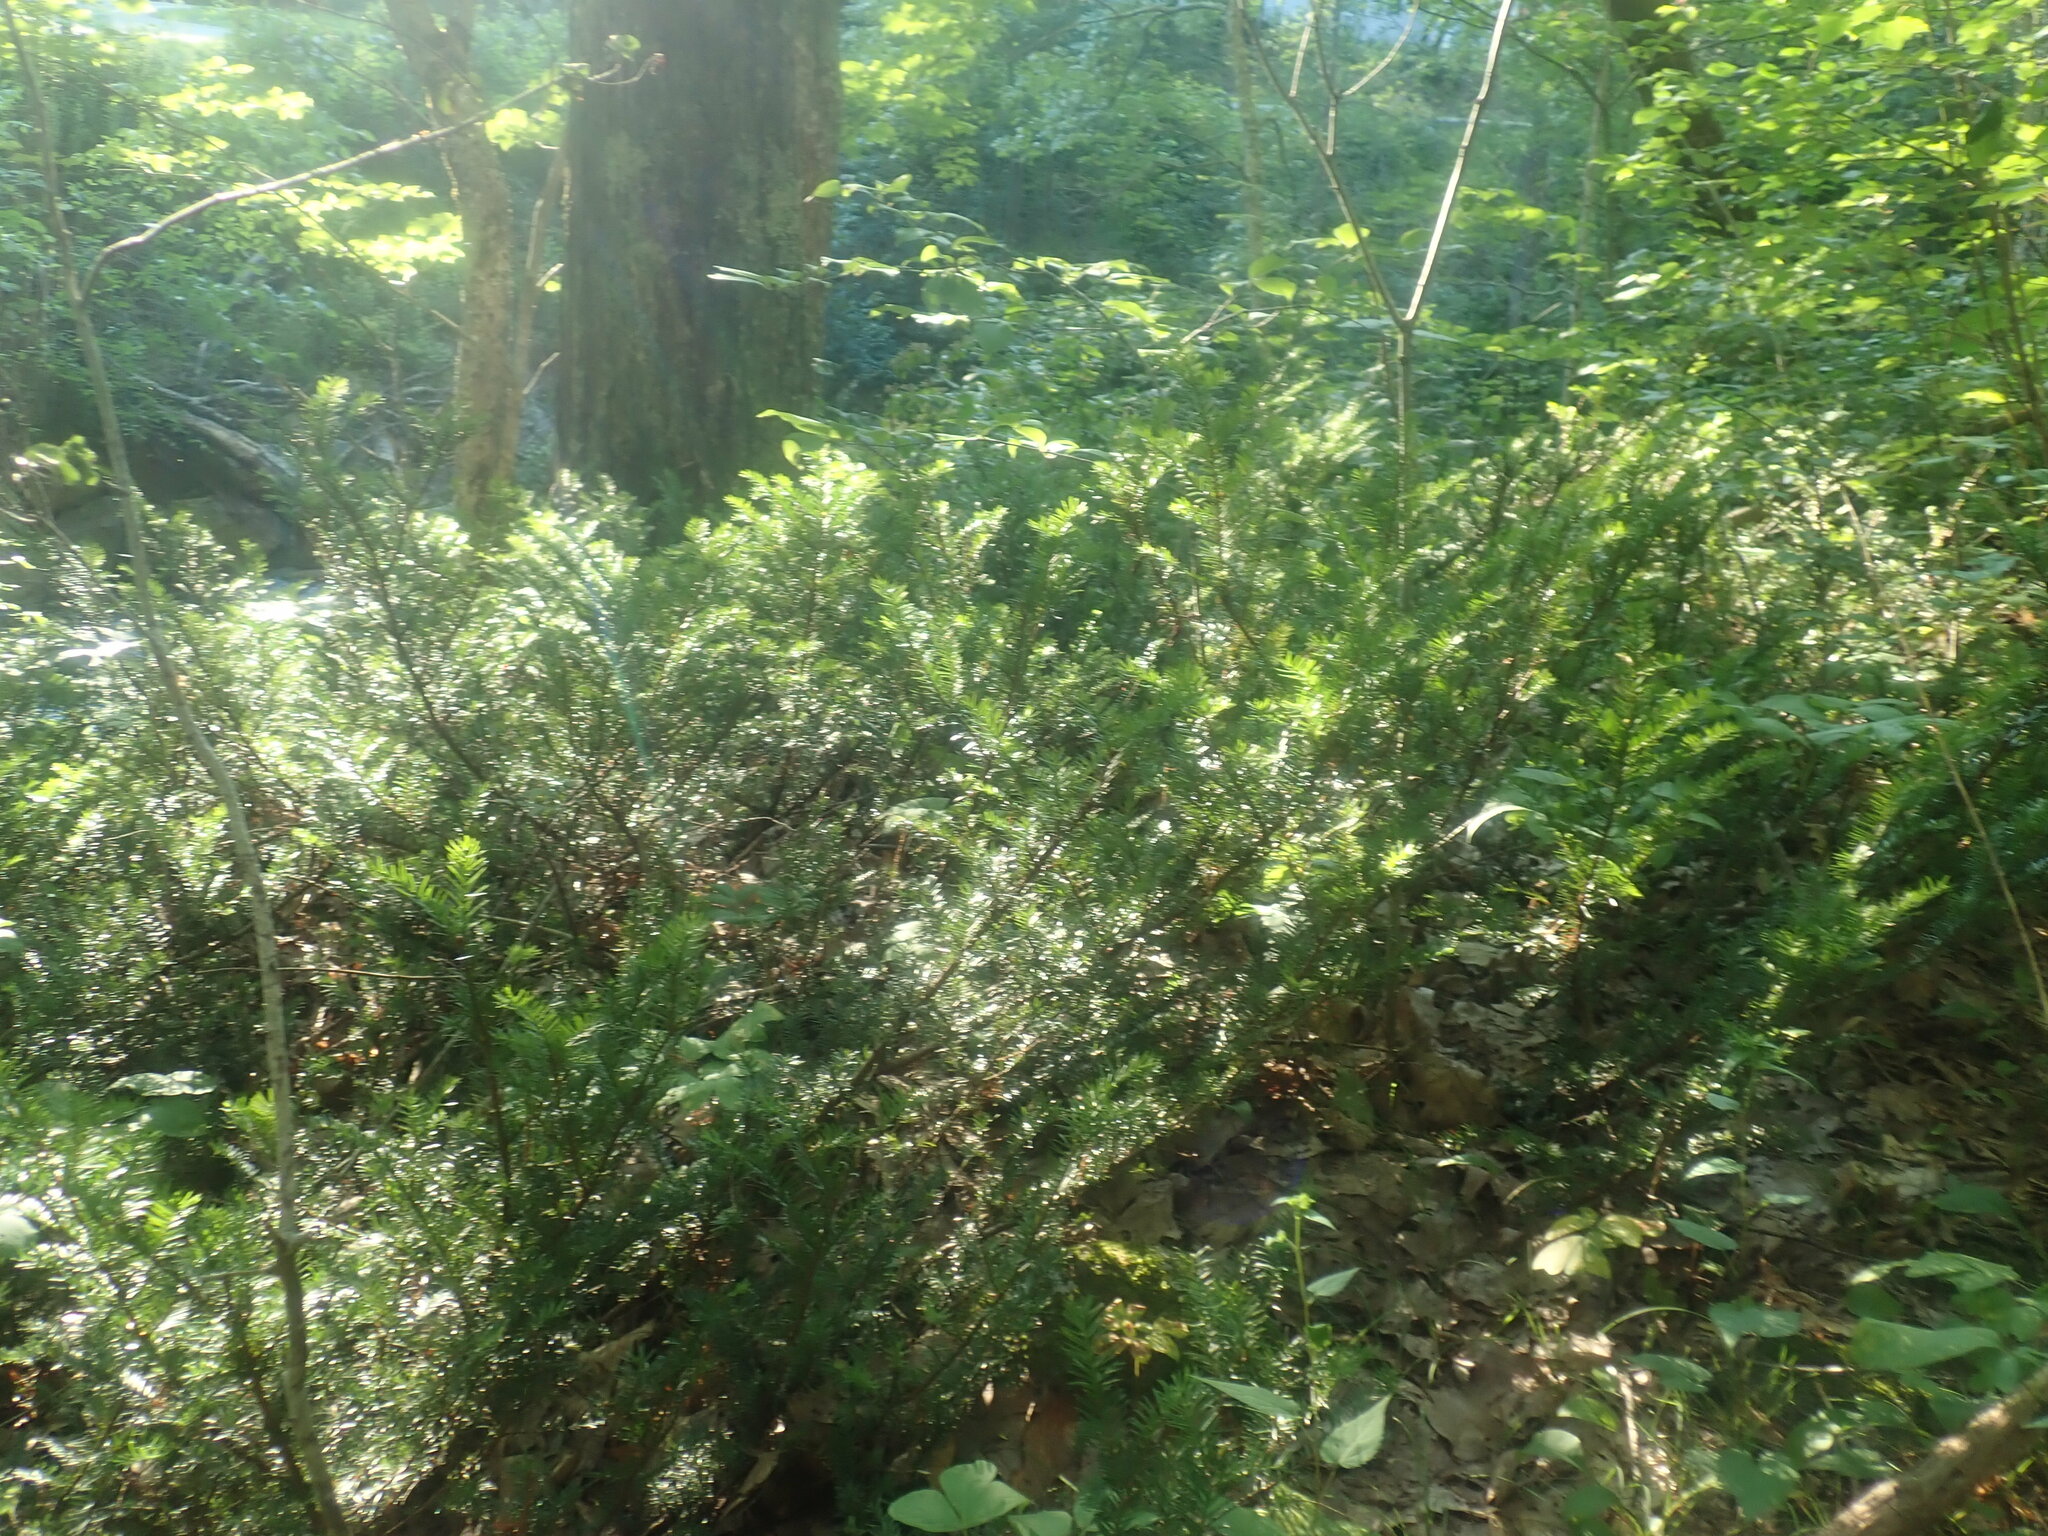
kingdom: Plantae
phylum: Tracheophyta
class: Pinopsida
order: Pinales
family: Taxaceae
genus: Taxus
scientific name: Taxus canadensis
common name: American yew
